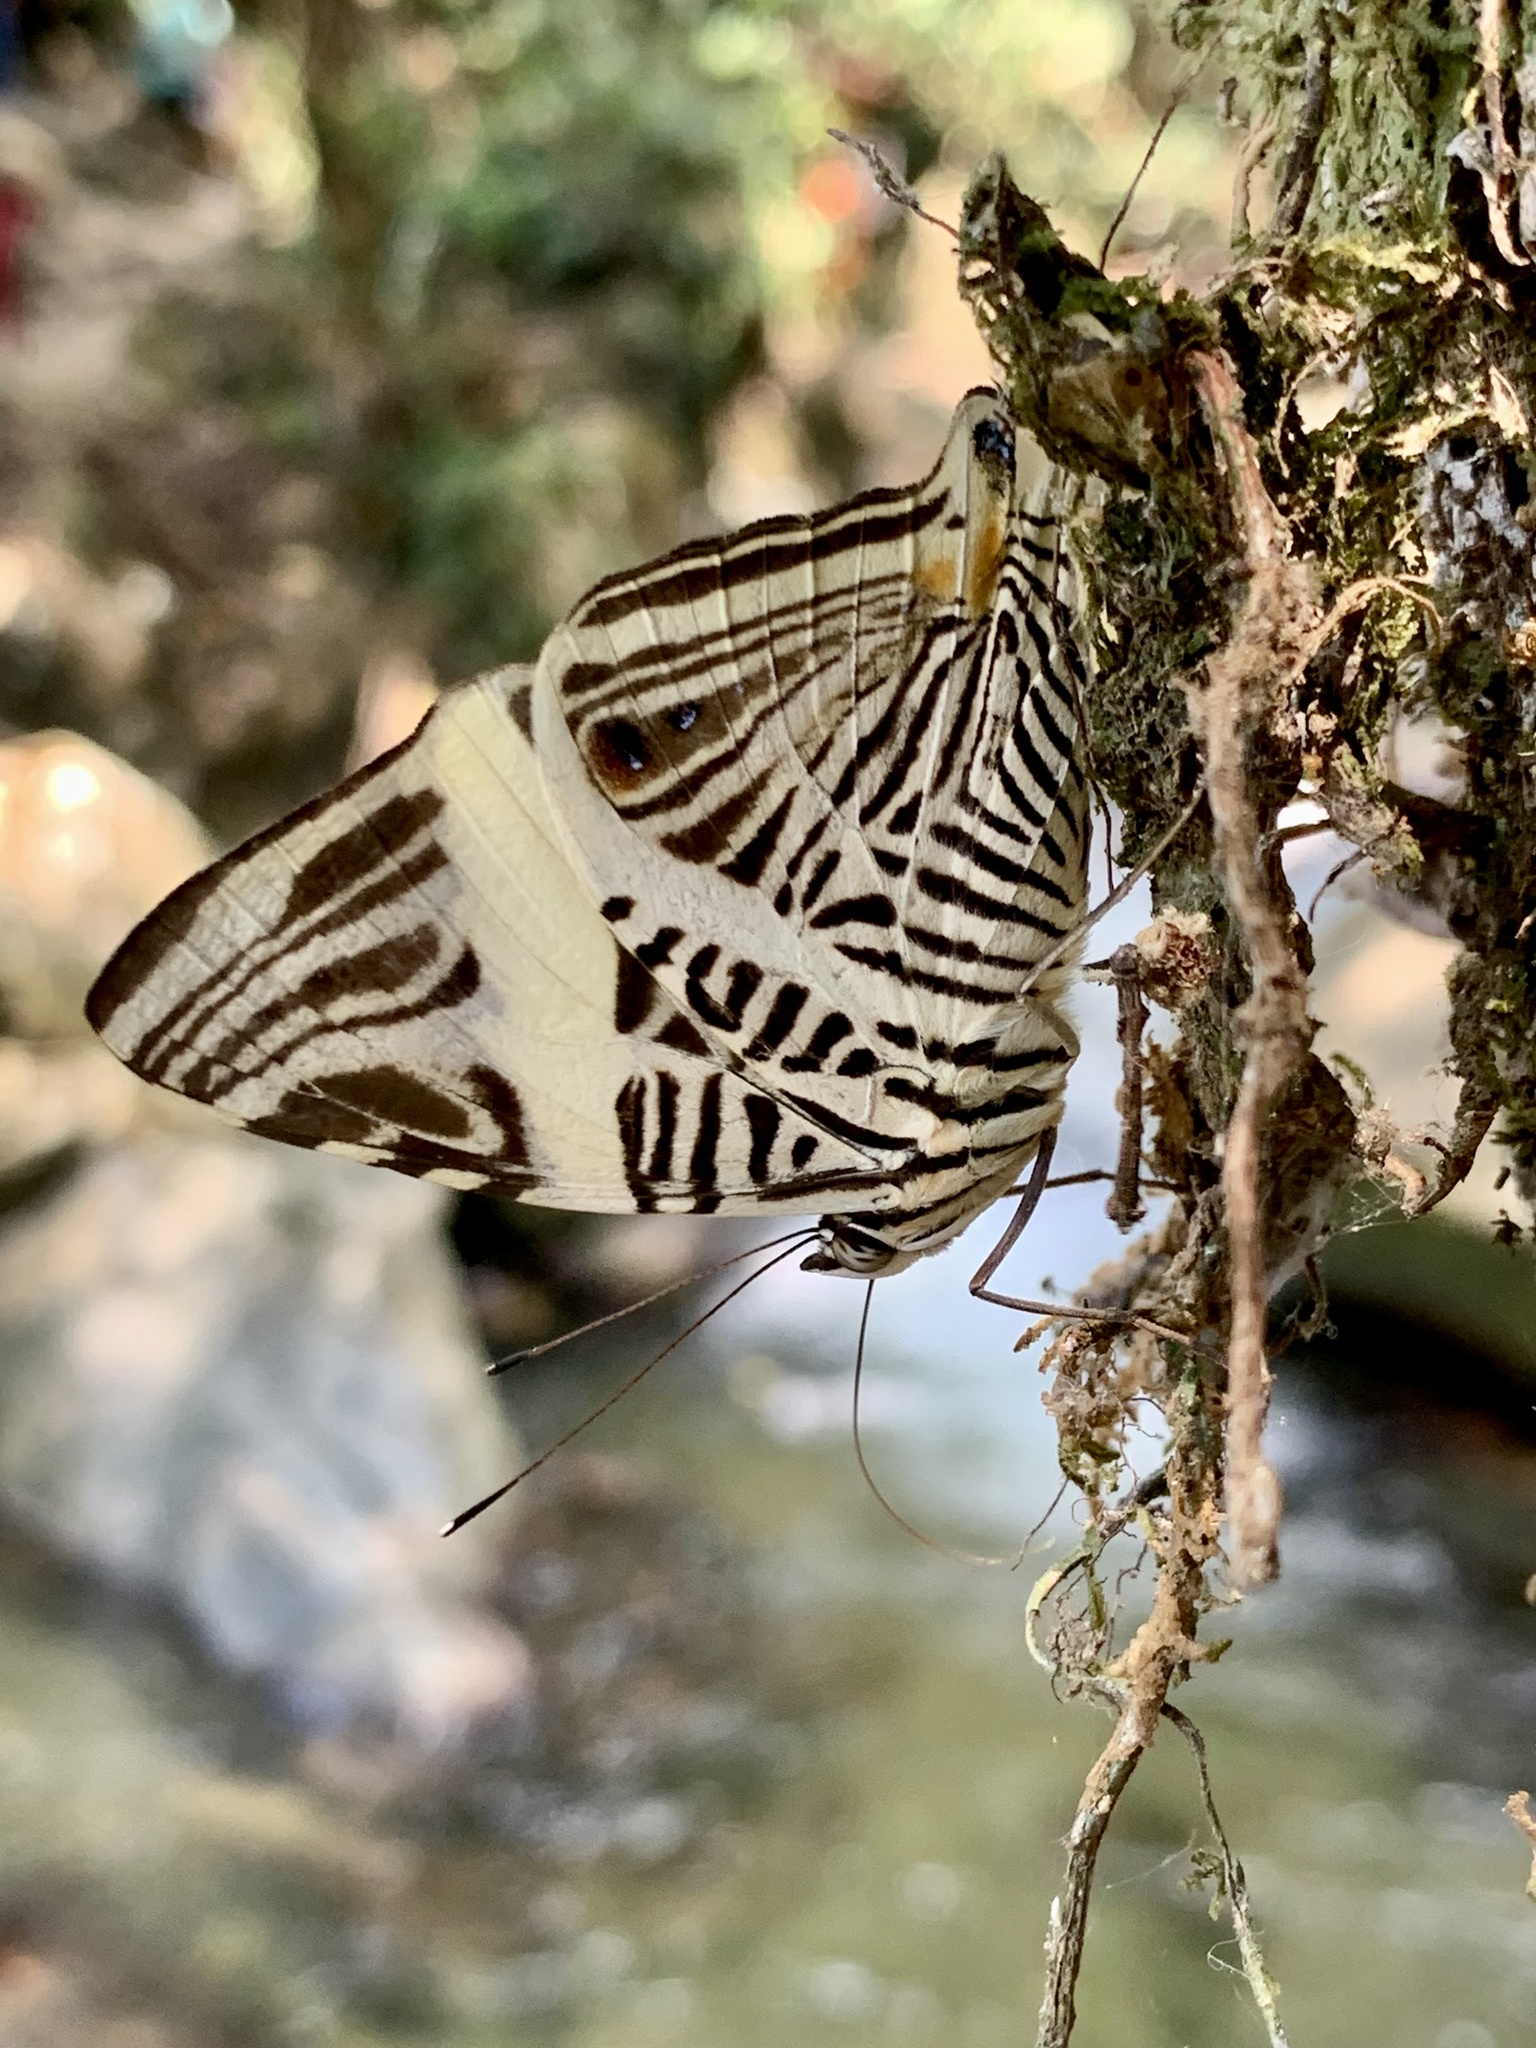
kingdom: Animalia
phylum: Arthropoda
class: Insecta
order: Lepidoptera
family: Nymphalidae
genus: Colobura
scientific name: Colobura dirce
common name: Dirce beauty
